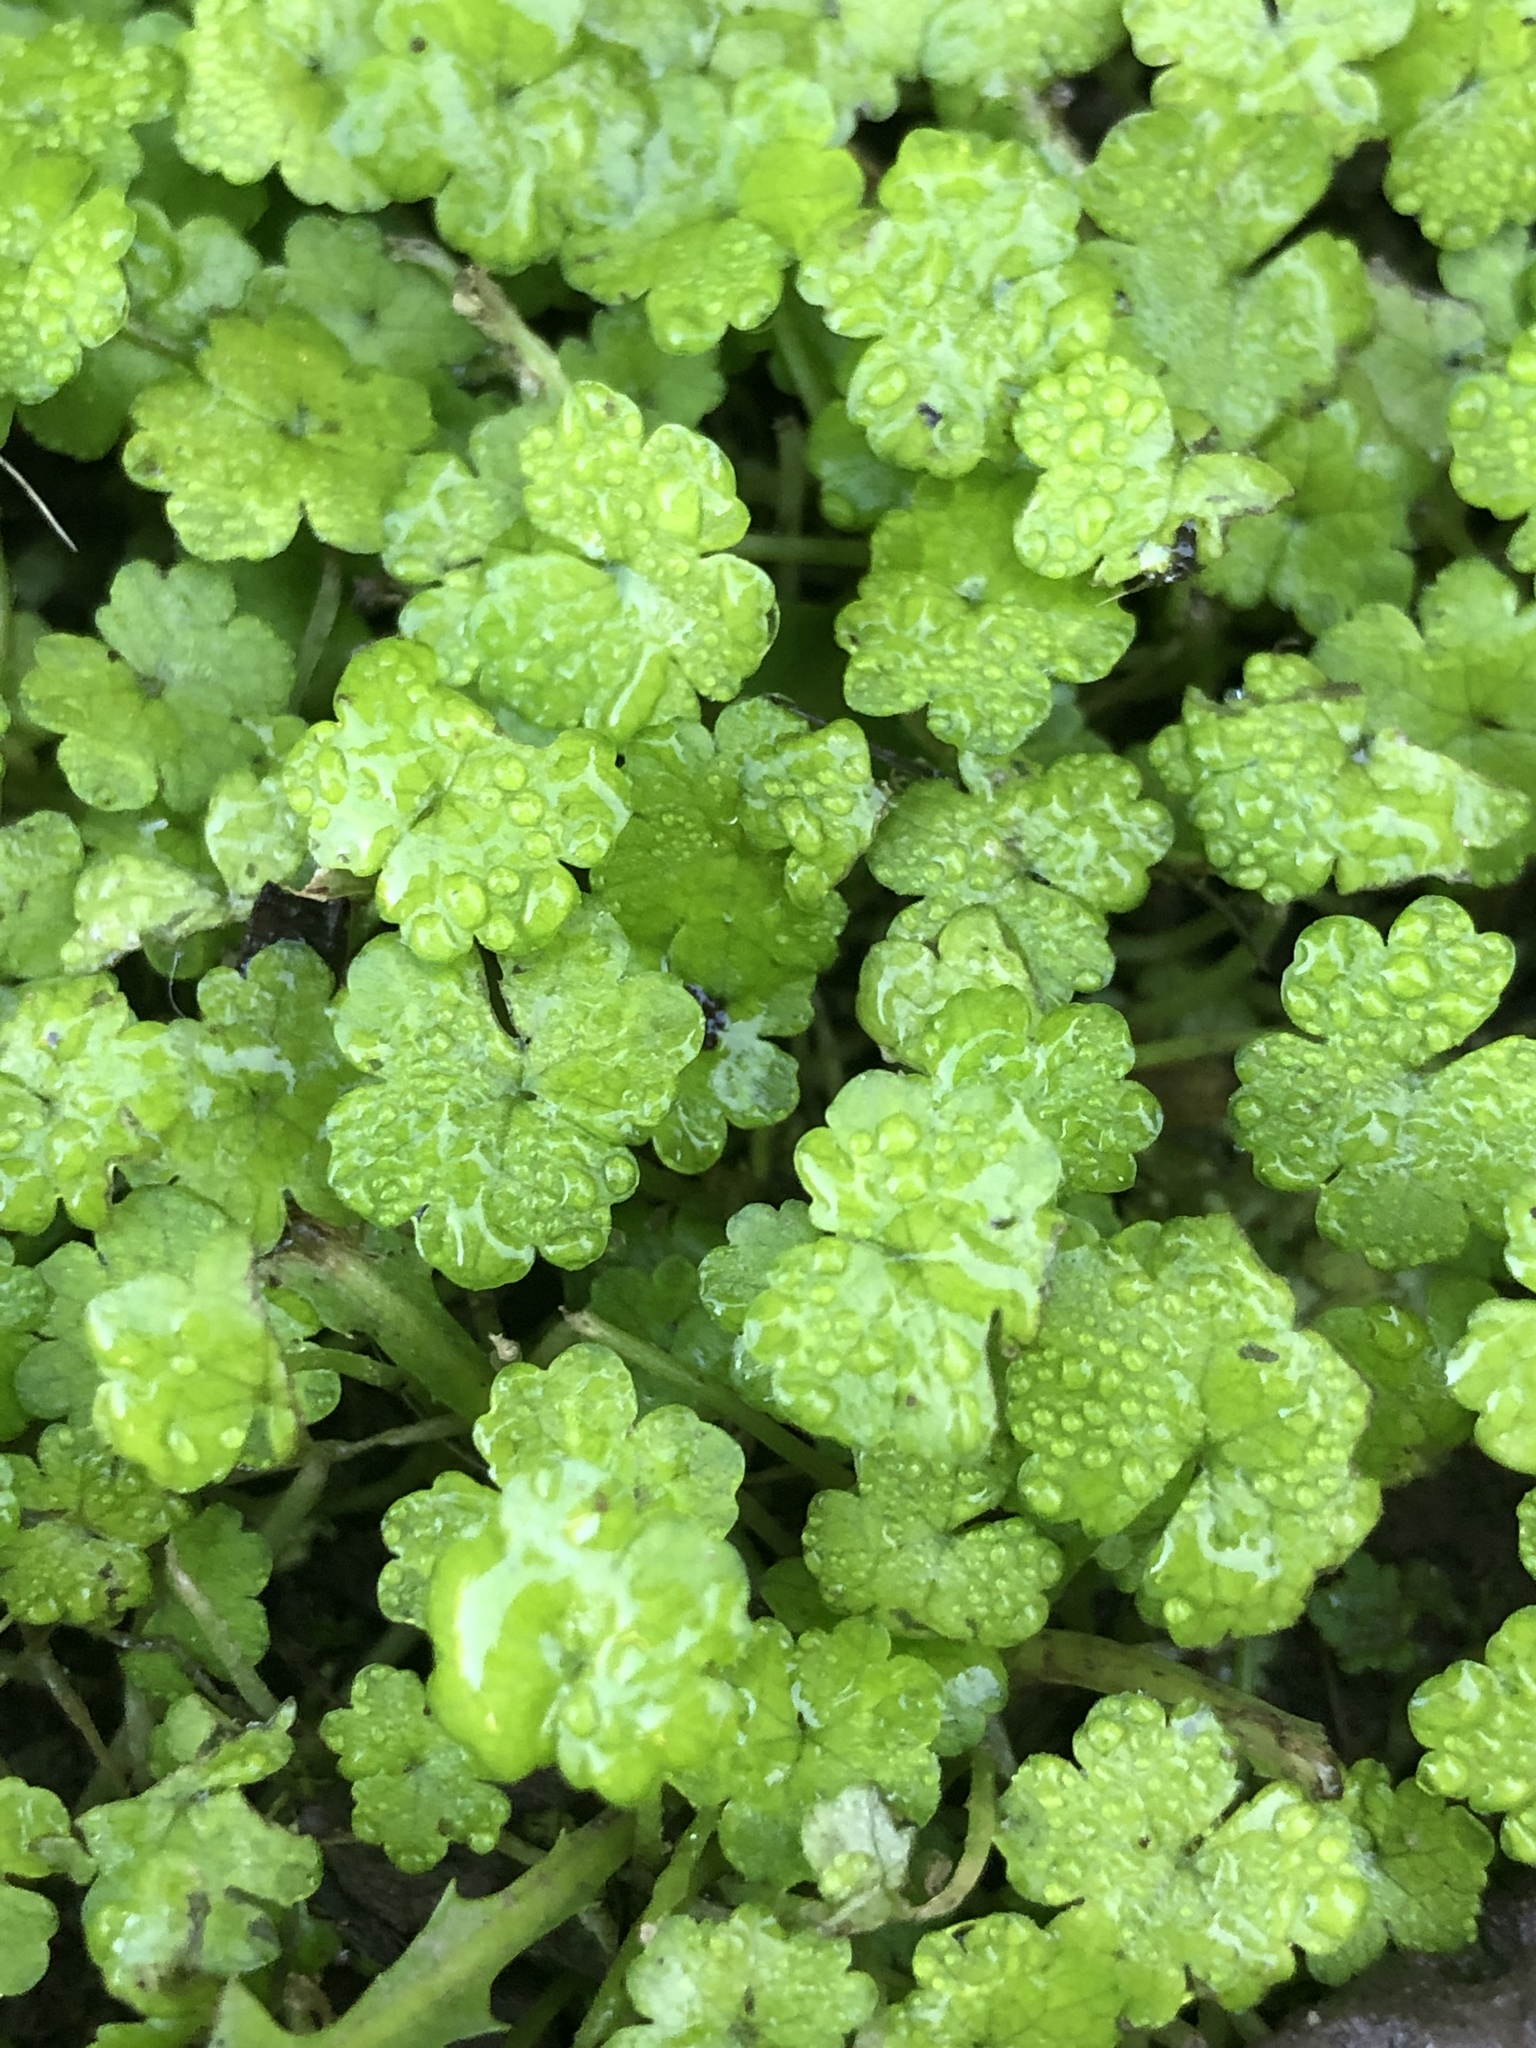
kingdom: Plantae
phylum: Tracheophyta
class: Magnoliopsida
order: Apiales
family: Araliaceae
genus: Hydrocotyle
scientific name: Hydrocotyle heteromeria
